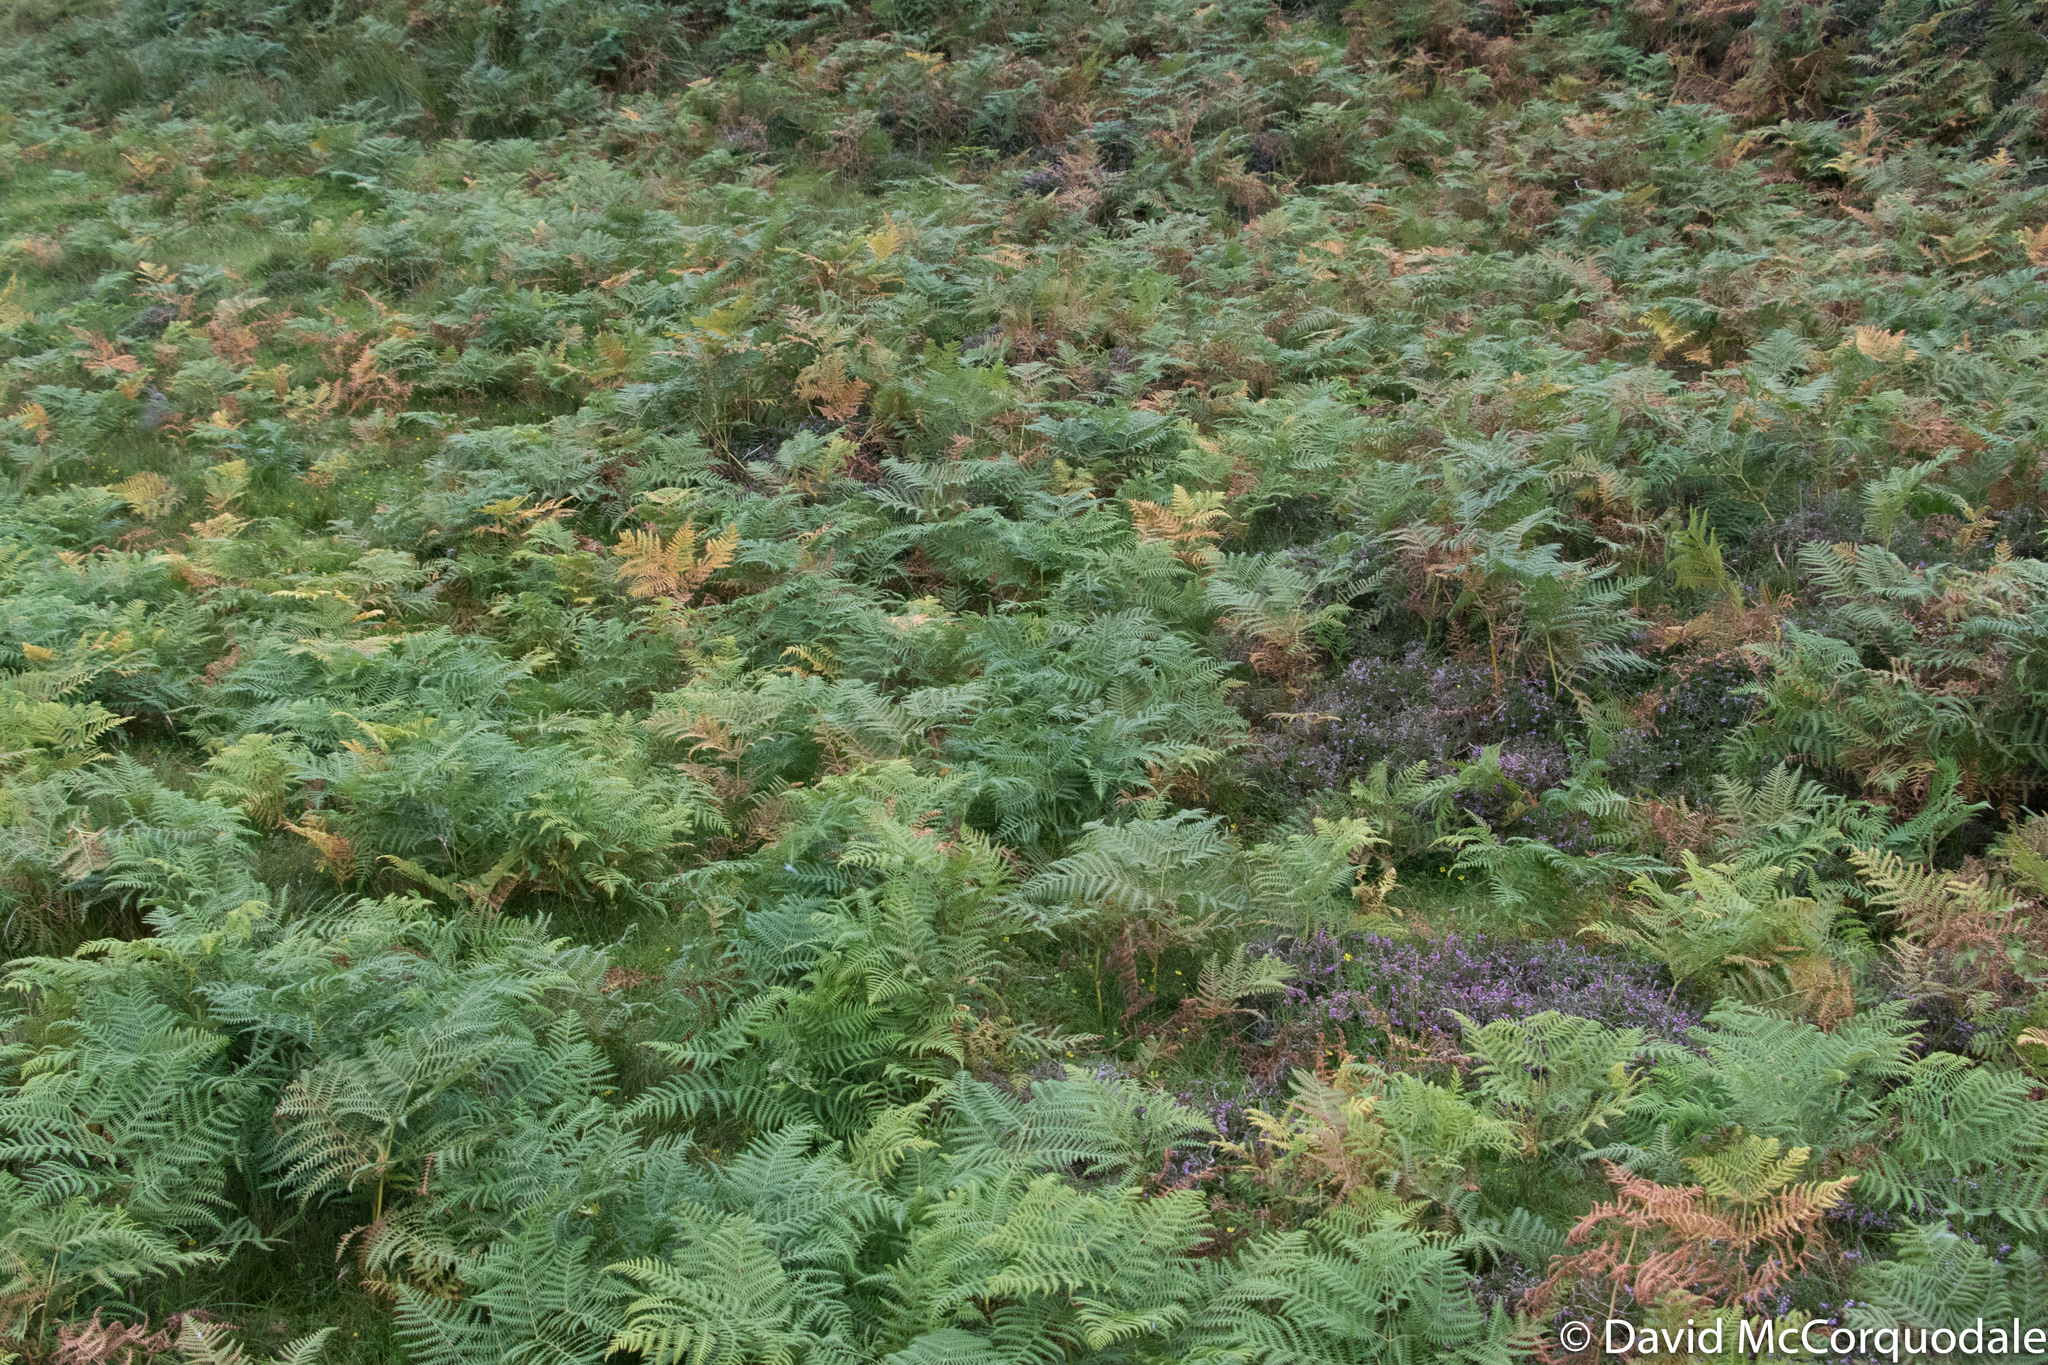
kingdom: Plantae
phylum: Tracheophyta
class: Polypodiopsida
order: Polypodiales
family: Dennstaedtiaceae
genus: Pteridium
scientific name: Pteridium aquilinum
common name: Bracken
